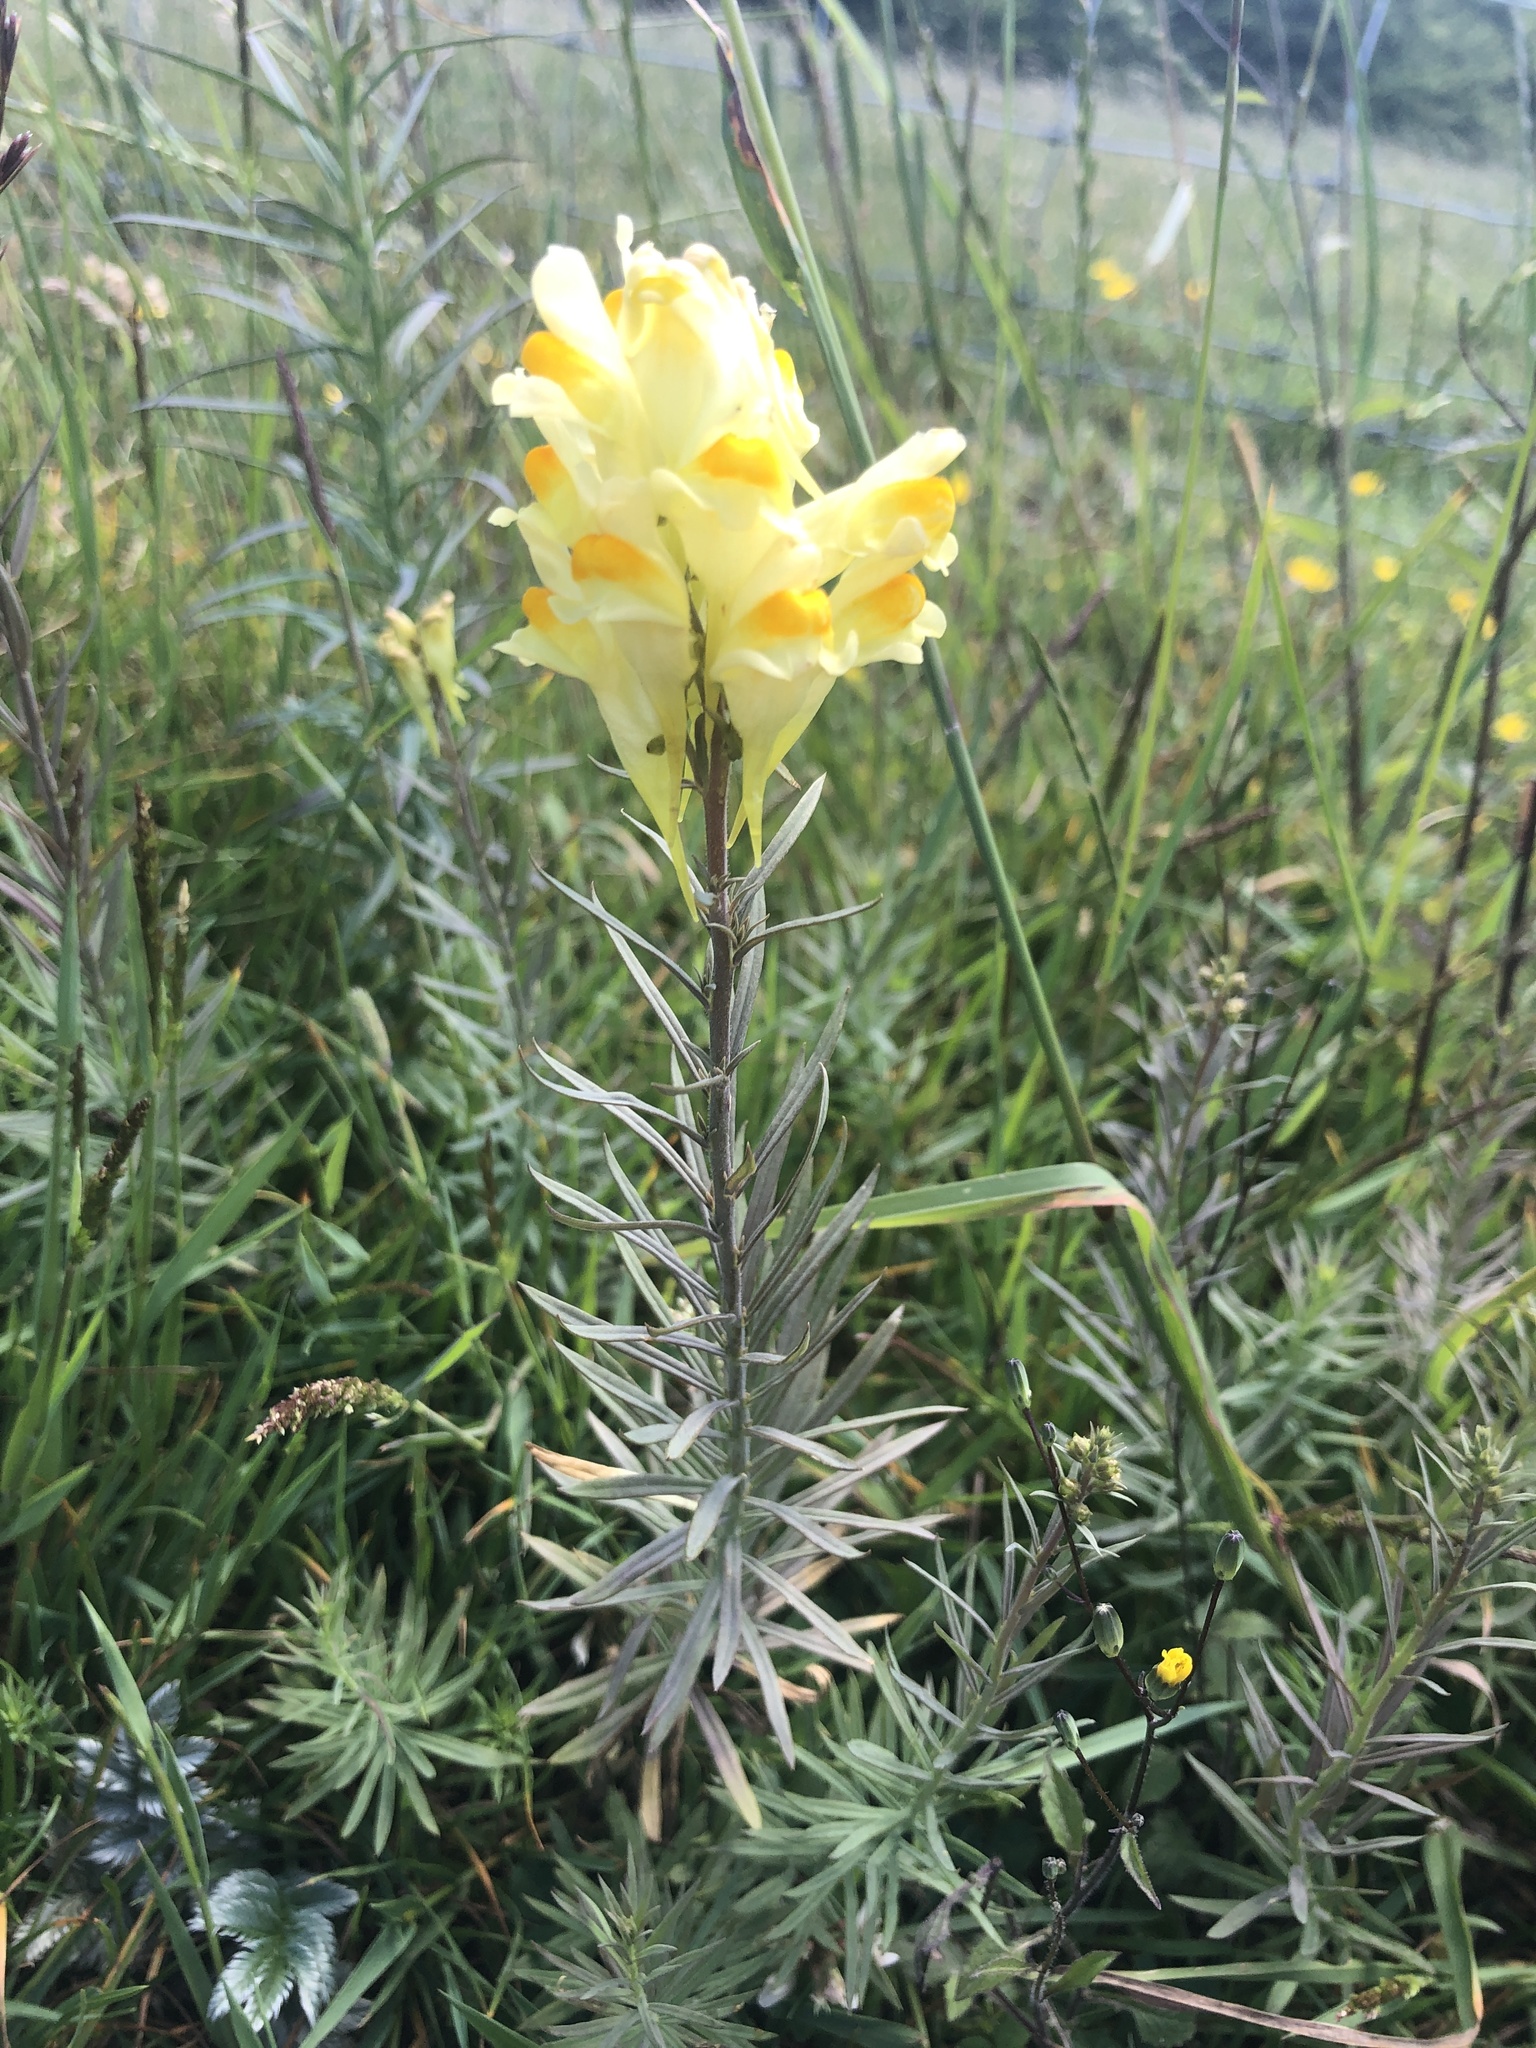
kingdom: Plantae
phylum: Tracheophyta
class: Magnoliopsida
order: Lamiales
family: Plantaginaceae
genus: Linaria
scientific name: Linaria vulgaris
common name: Butter and eggs
